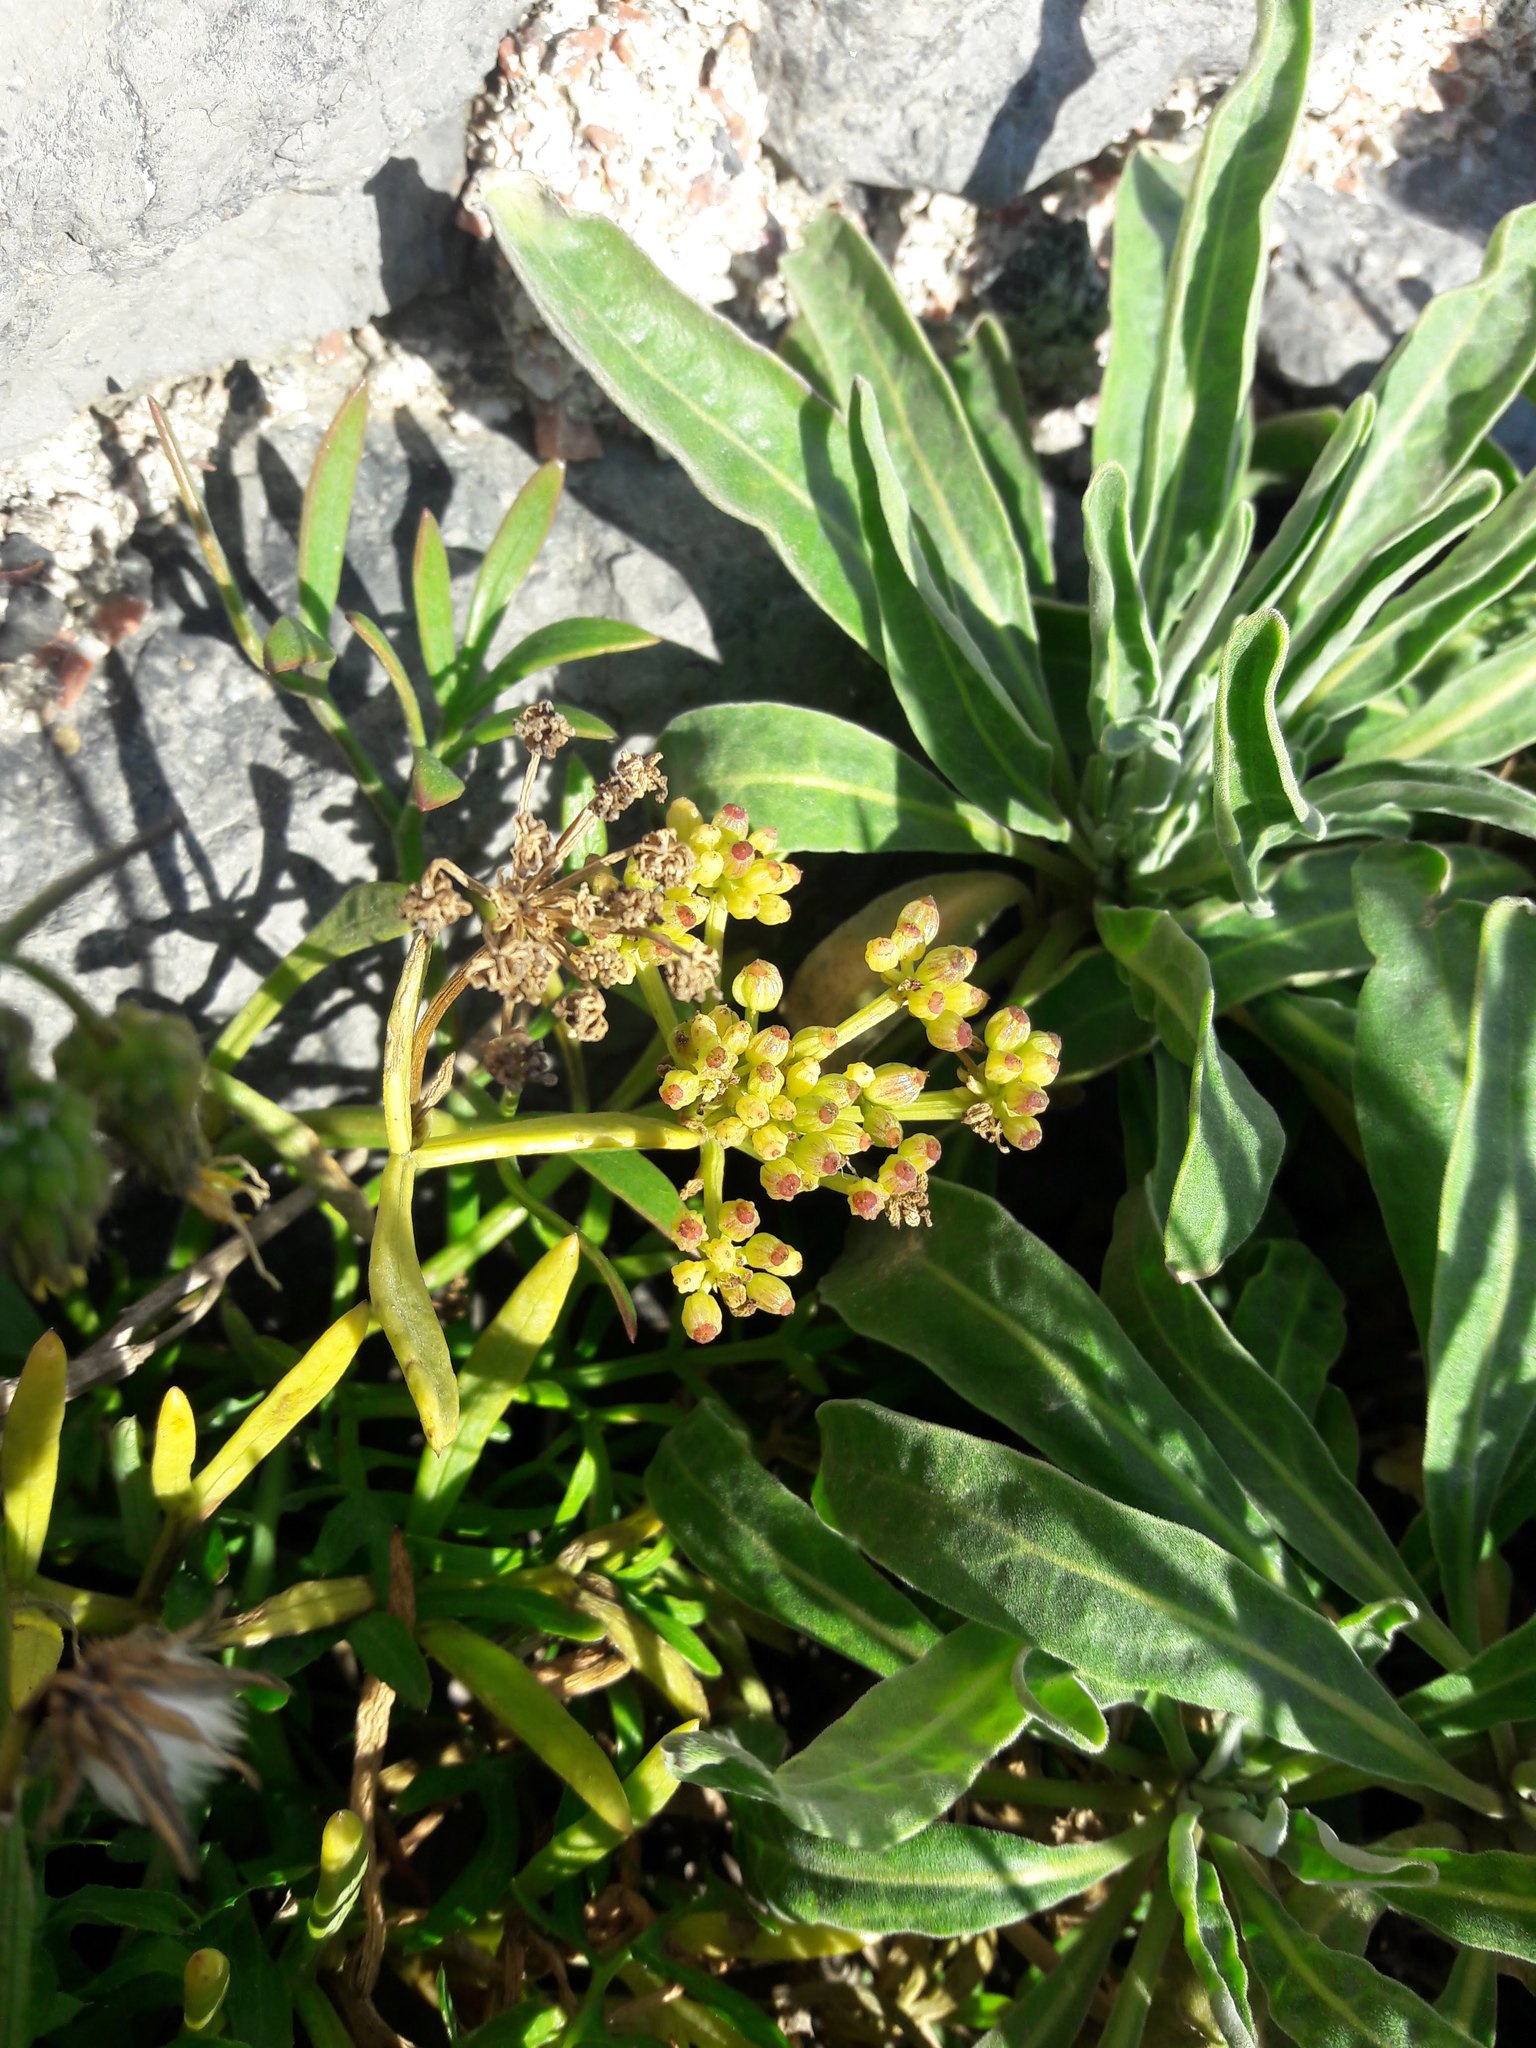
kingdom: Plantae
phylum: Tracheophyta
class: Magnoliopsida
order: Apiales
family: Apiaceae
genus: Crithmum
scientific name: Crithmum maritimum
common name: Rock samphire
